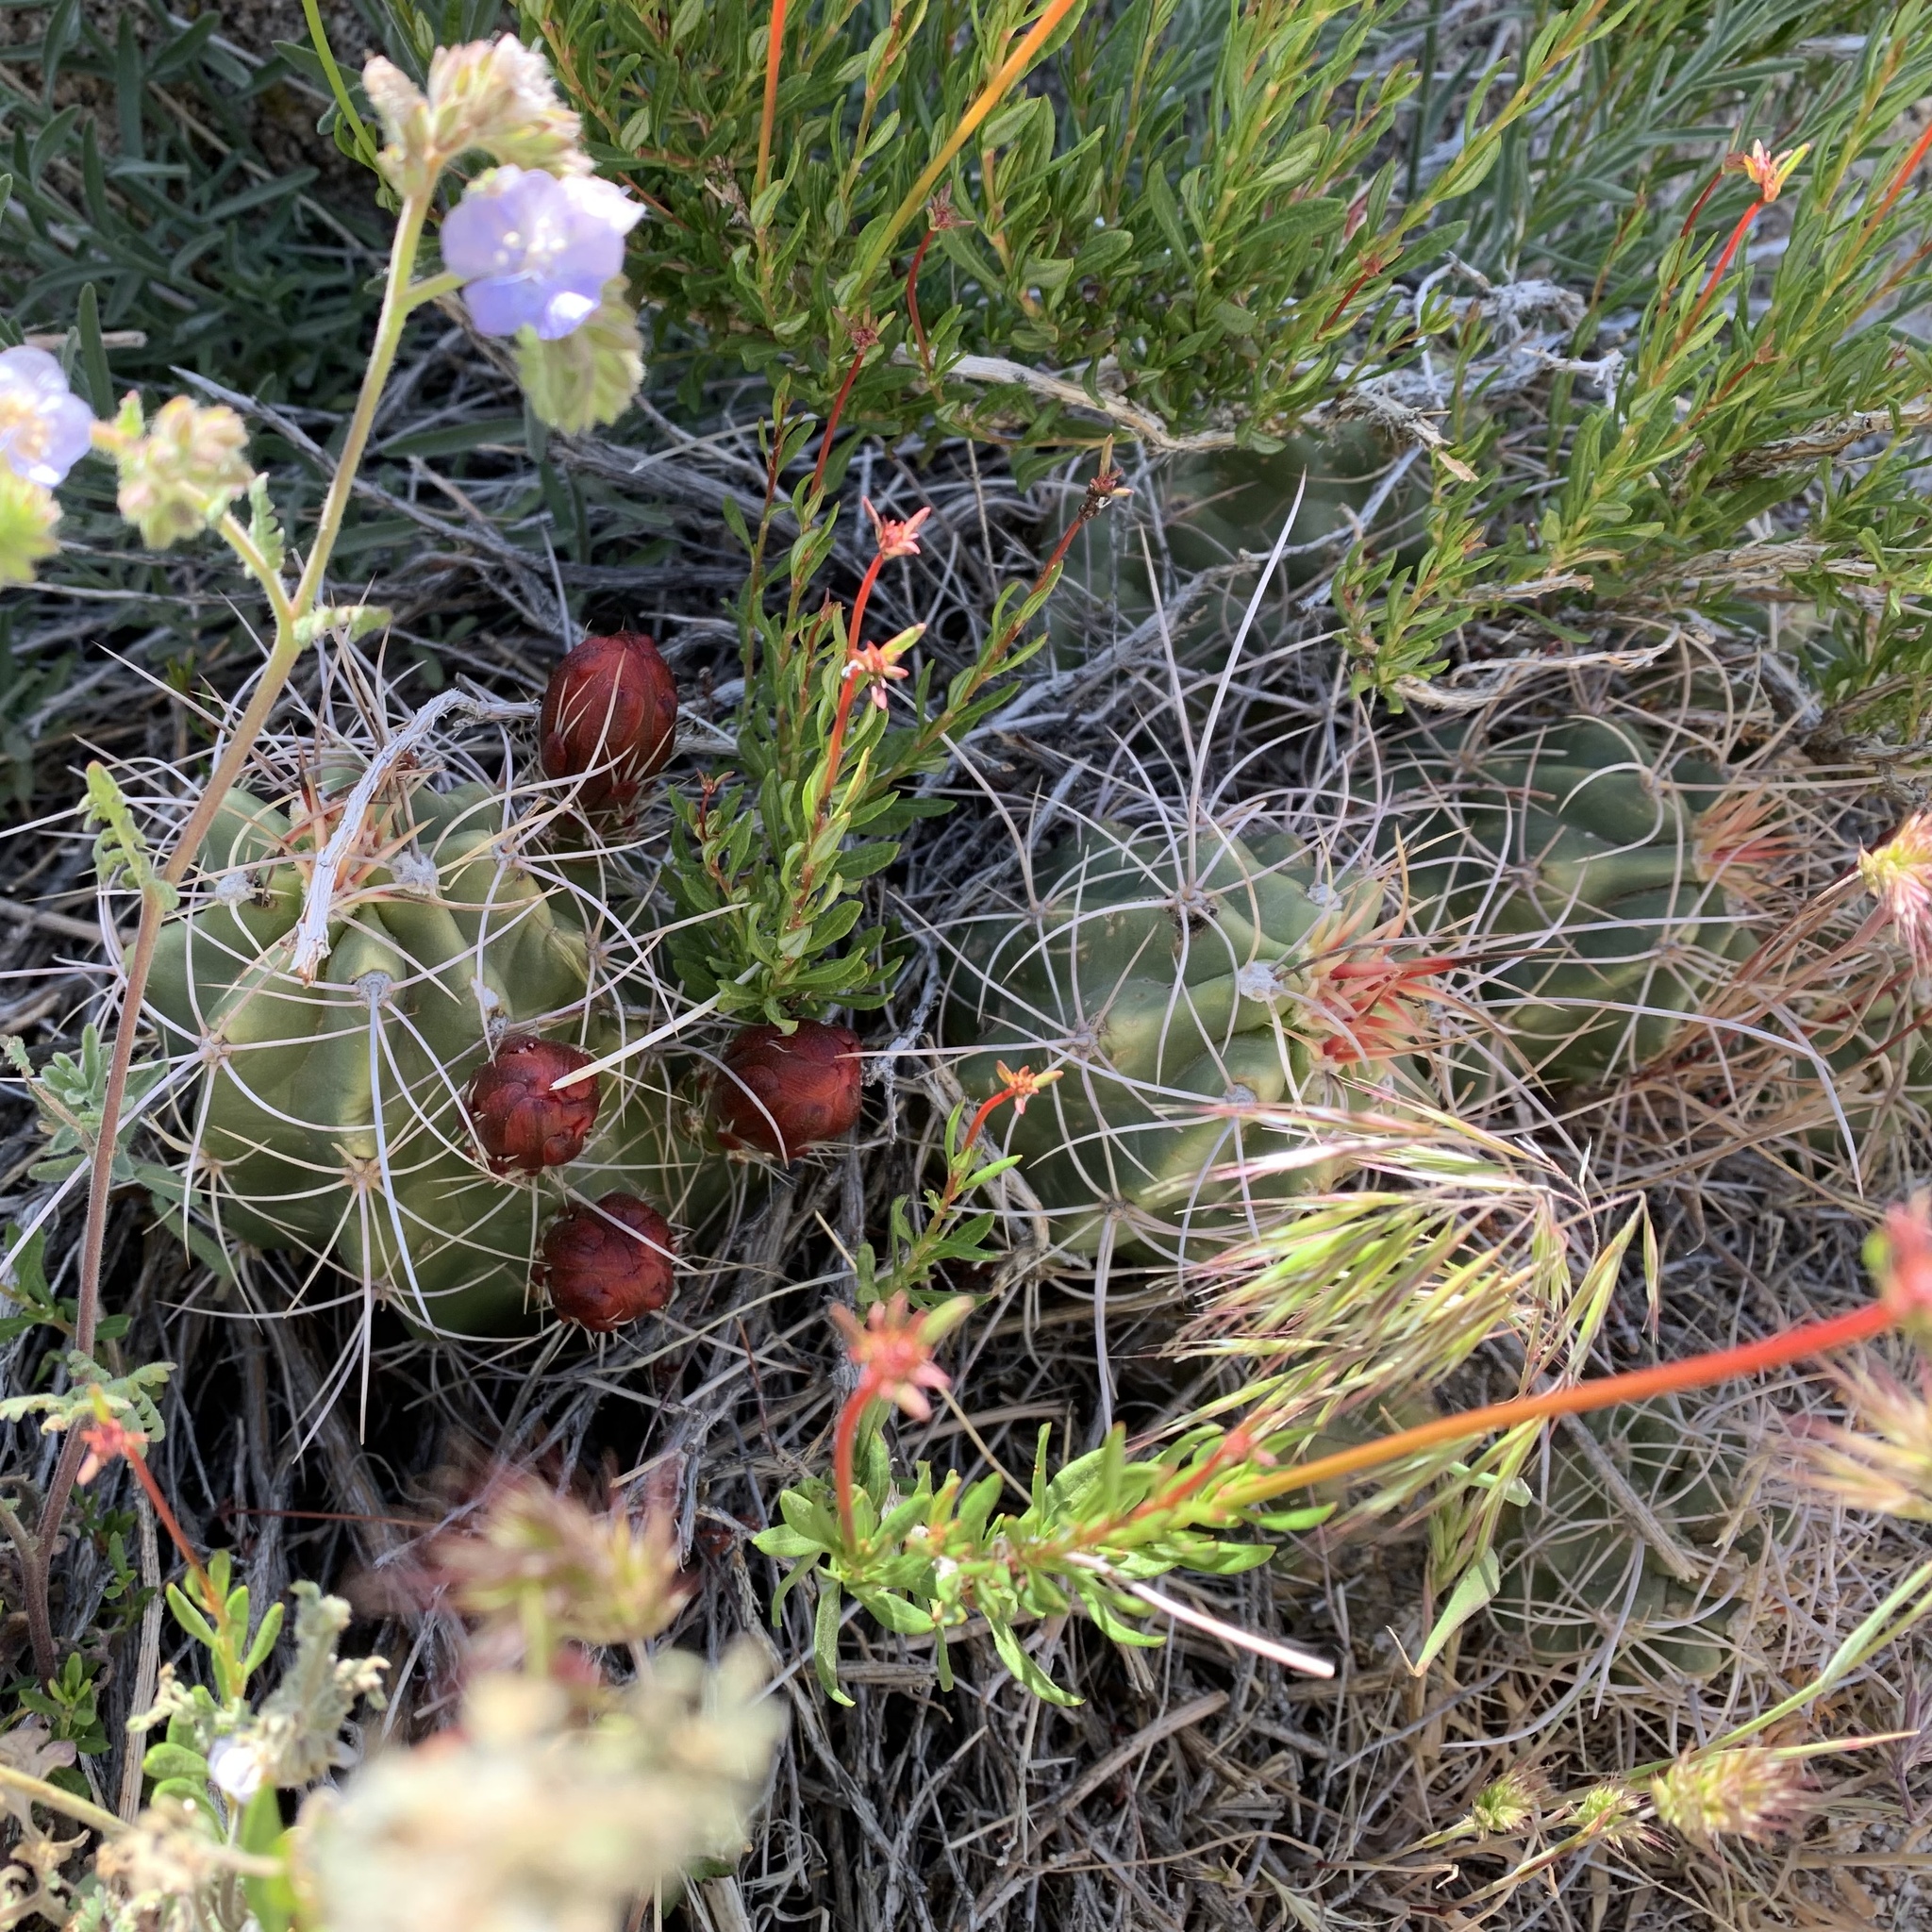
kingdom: Plantae
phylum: Tracheophyta
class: Magnoliopsida
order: Caryophyllales
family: Cactaceae
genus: Echinocereus
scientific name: Echinocereus triglochidiatus
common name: Claretcup hedgehog
